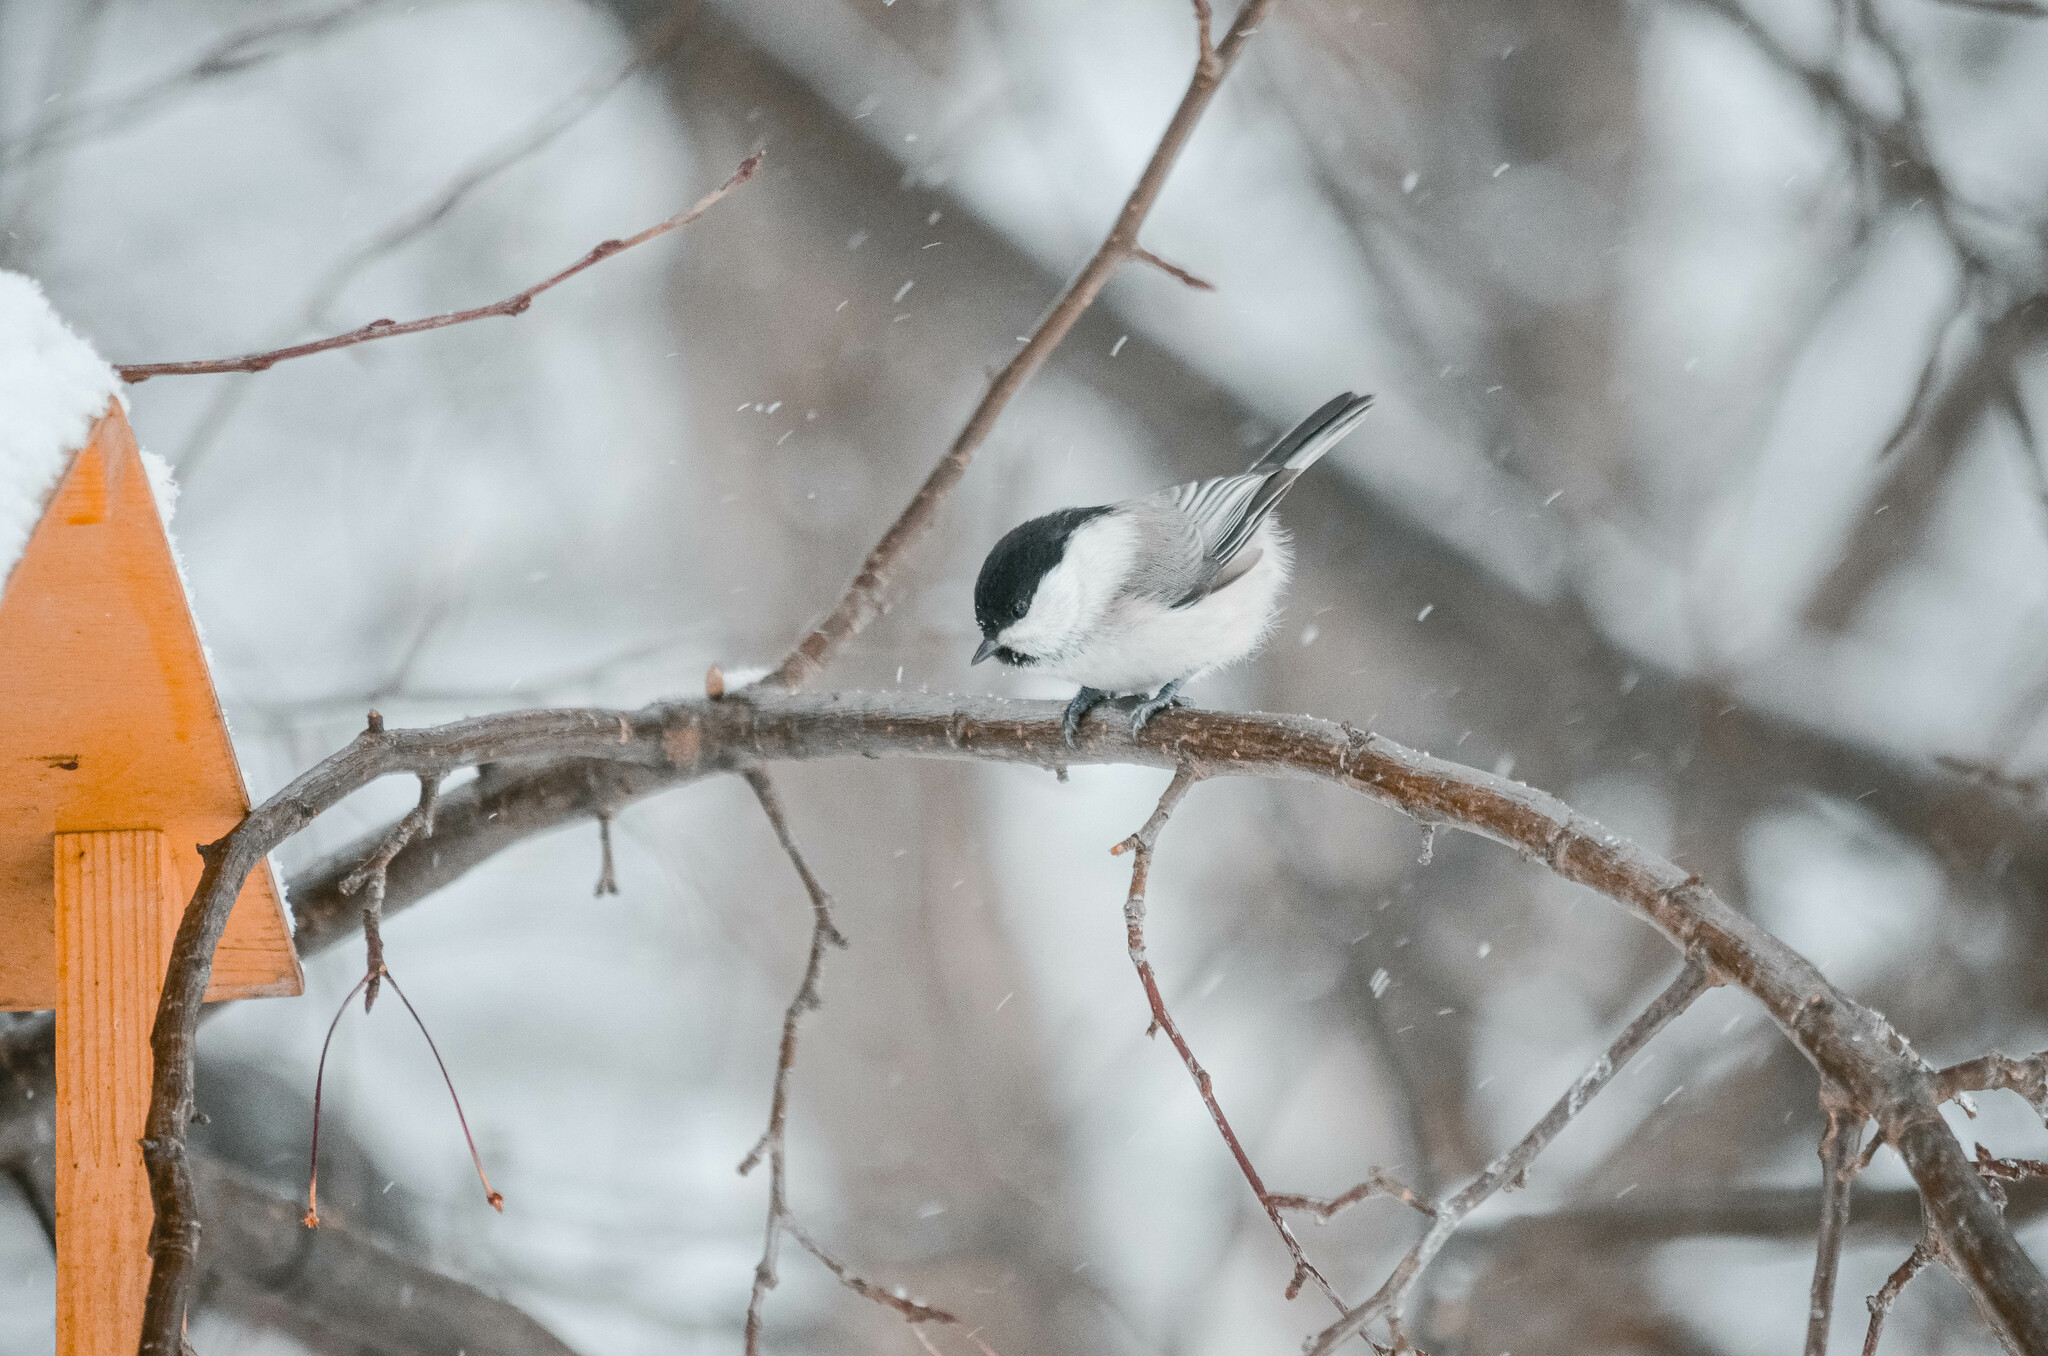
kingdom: Animalia
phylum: Chordata
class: Aves
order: Passeriformes
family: Paridae
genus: Poecile
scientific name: Poecile montanus
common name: Willow tit
